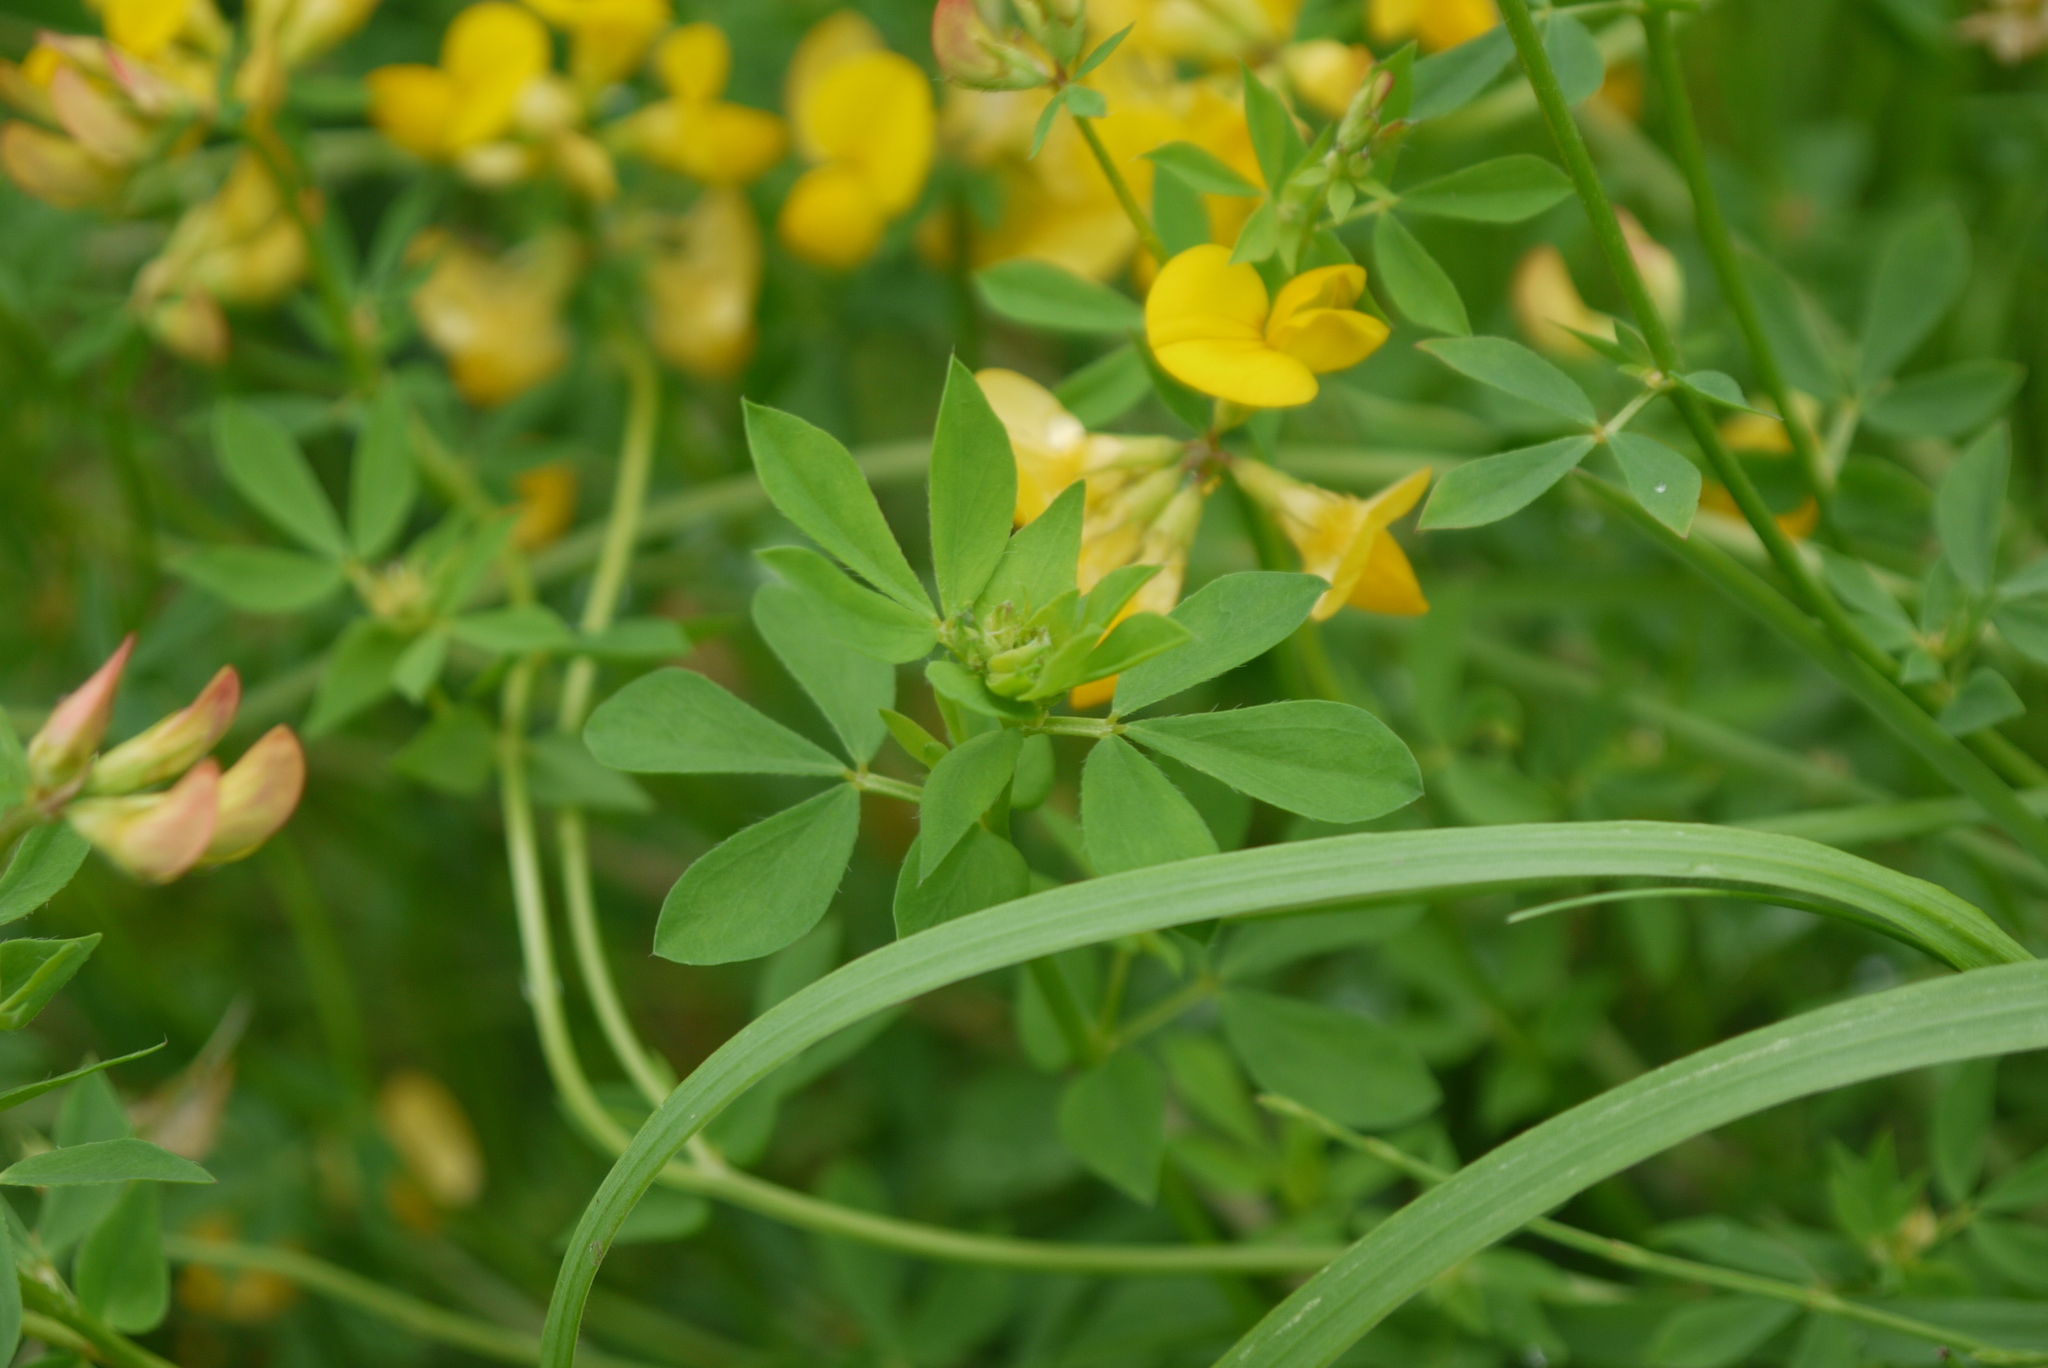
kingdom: Plantae
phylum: Tracheophyta
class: Magnoliopsida
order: Fabales
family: Fabaceae
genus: Lotus
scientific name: Lotus corniculatus
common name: Common bird's-foot-trefoil
